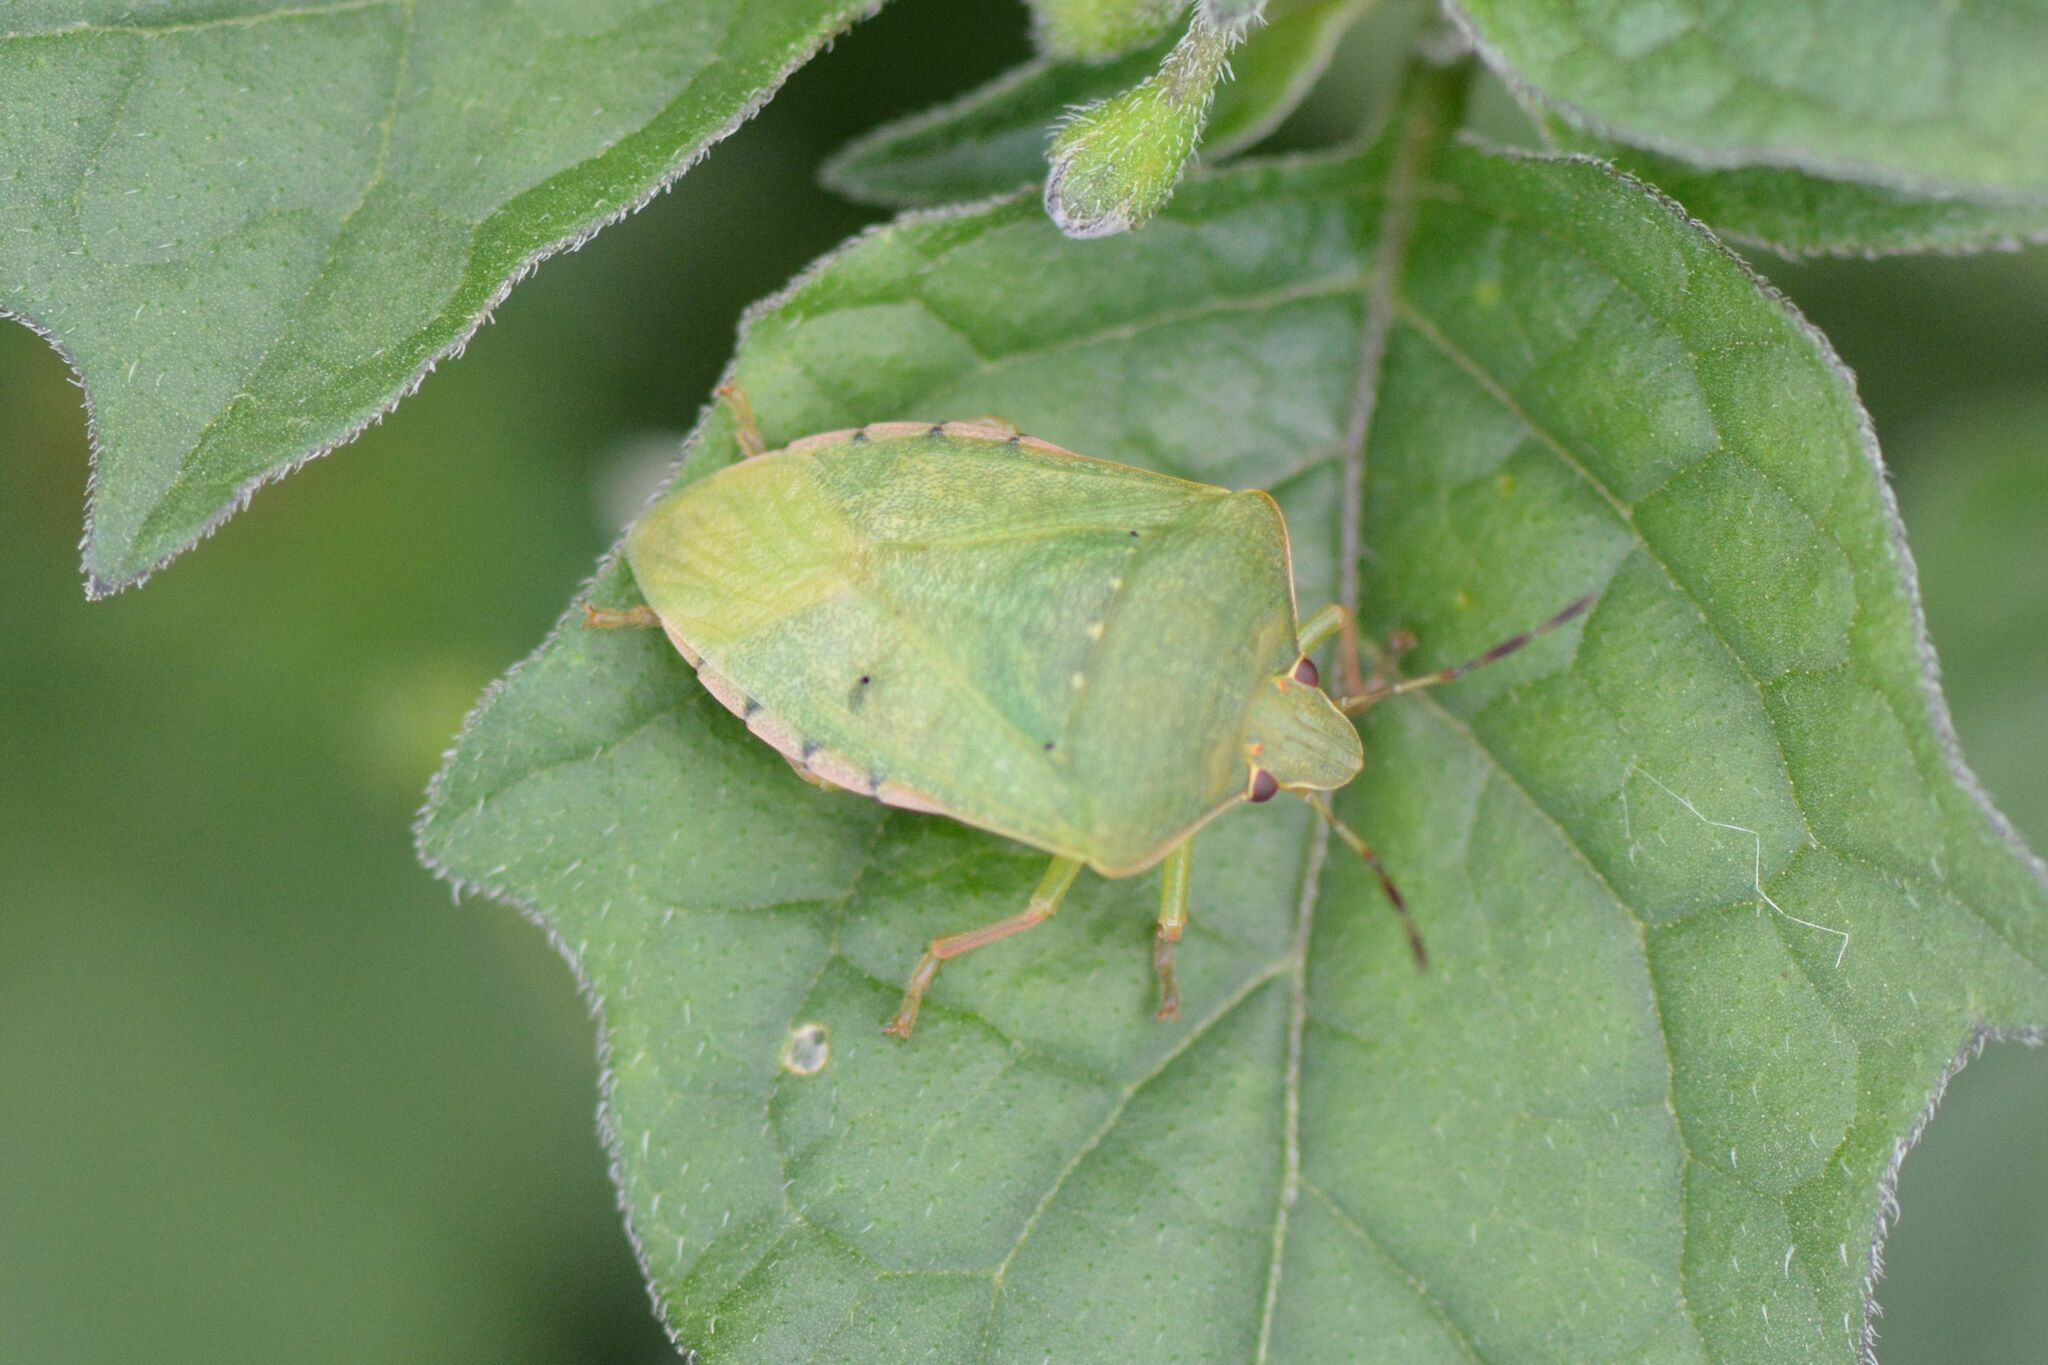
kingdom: Animalia
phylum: Arthropoda
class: Insecta
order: Hemiptera
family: Pentatomidae
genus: Nezara
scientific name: Nezara viridula
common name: Southern green stink bug
